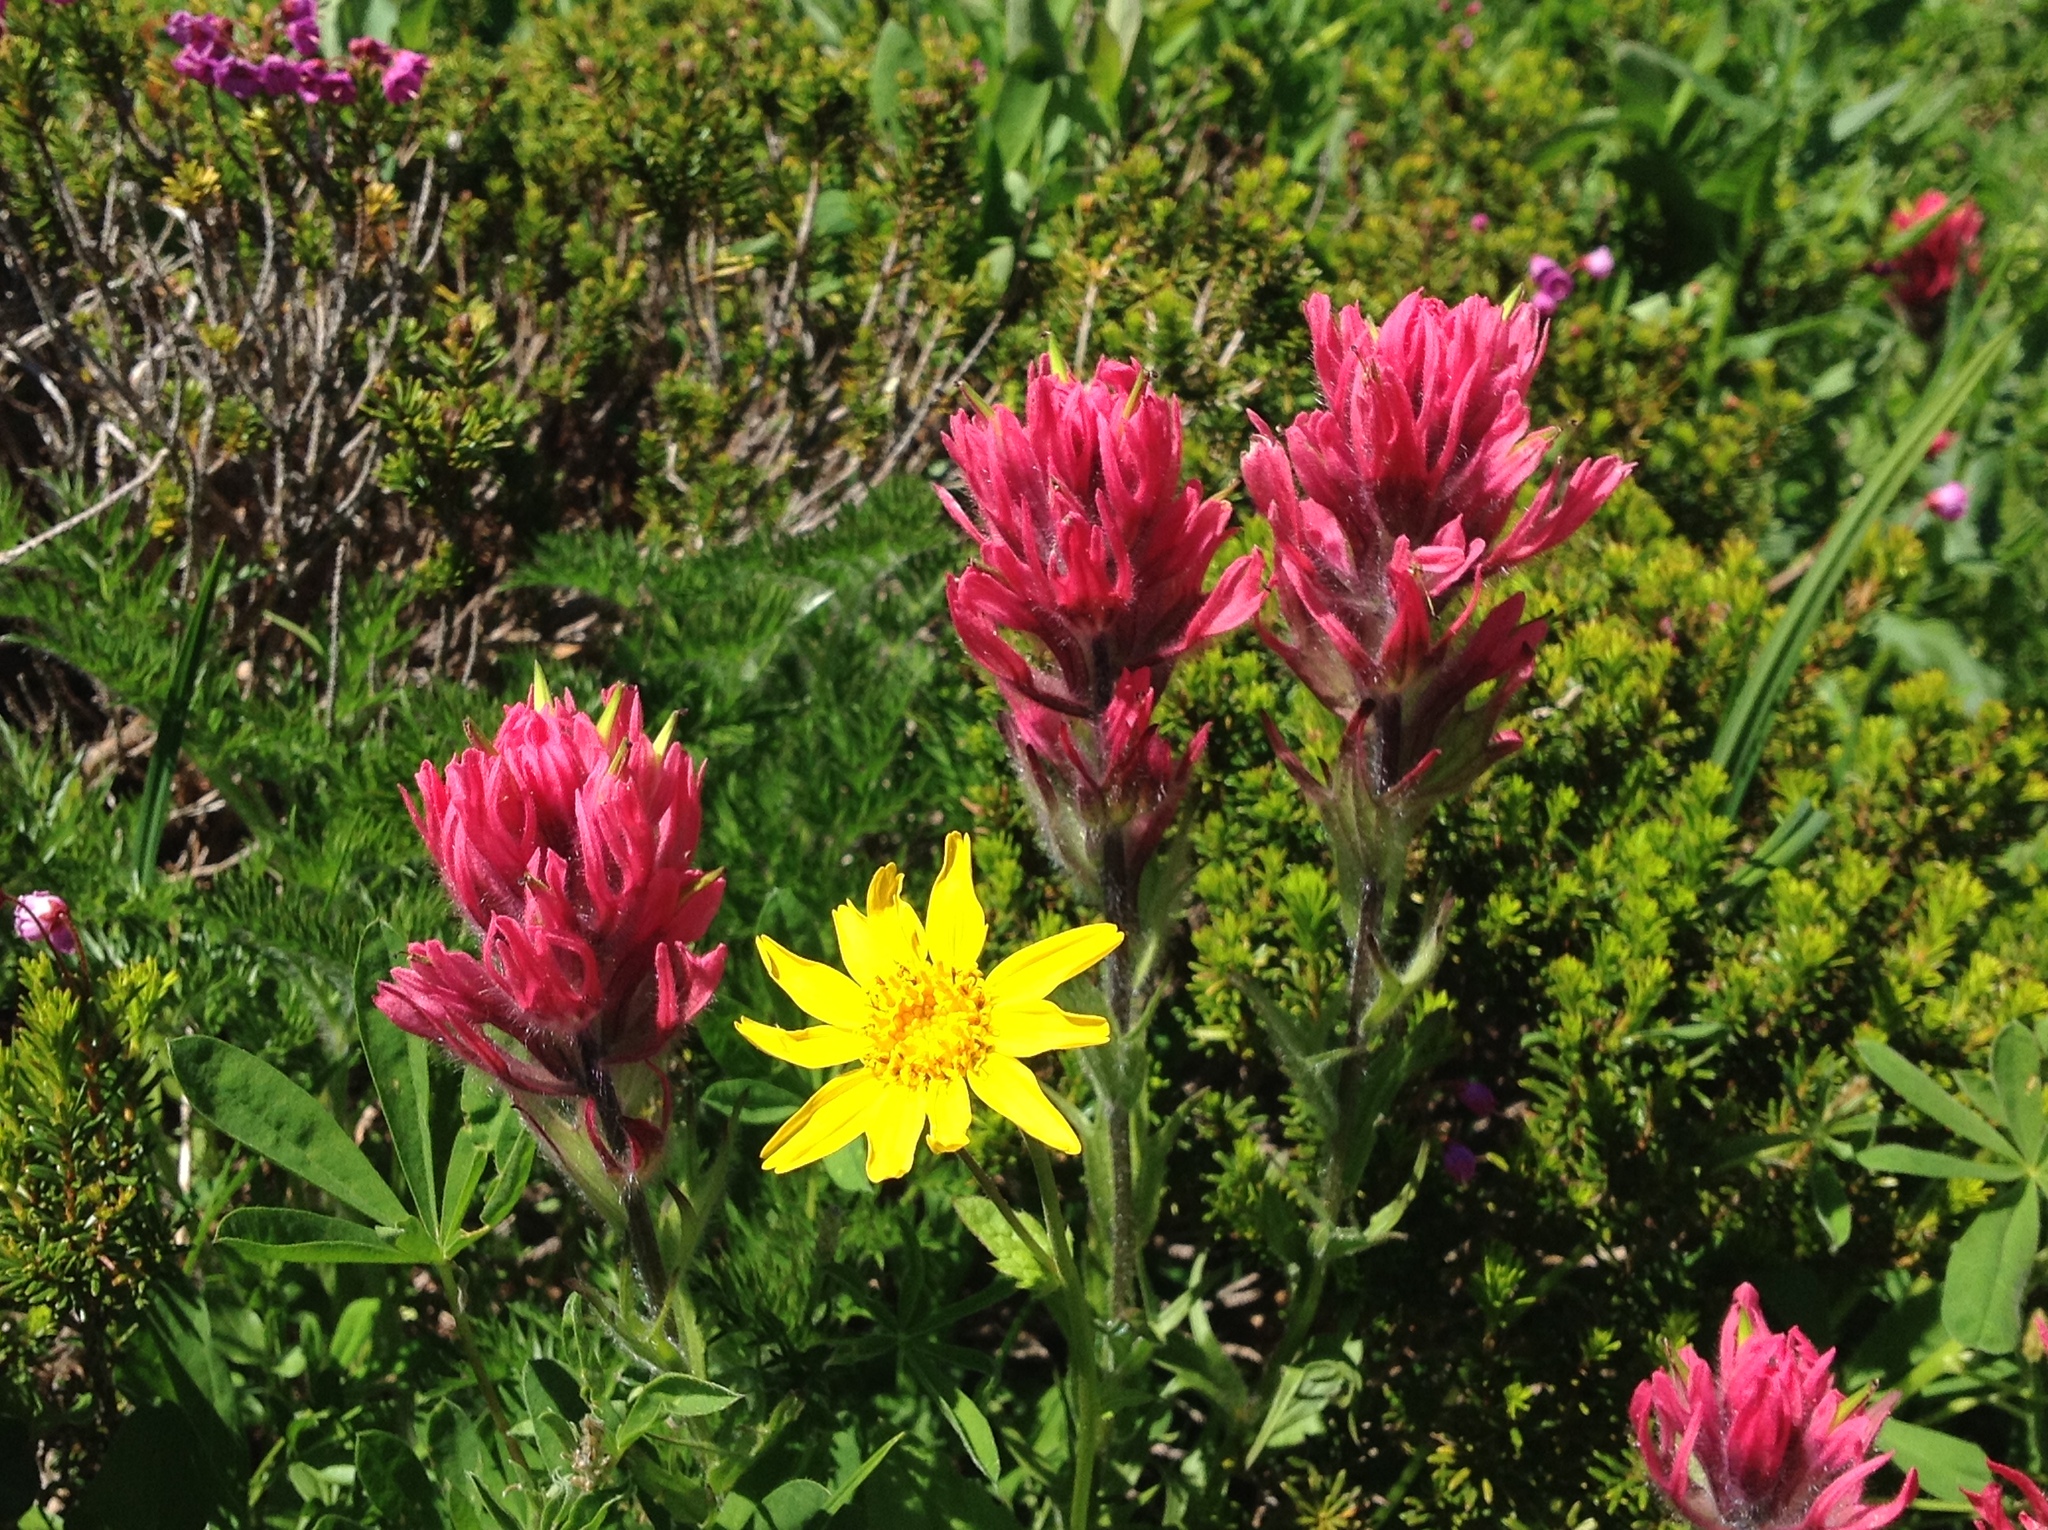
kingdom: Plantae
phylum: Tracheophyta
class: Magnoliopsida
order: Lamiales
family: Orobanchaceae
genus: Castilleja
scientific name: Castilleja parviflora
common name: Mountain paintbrush
